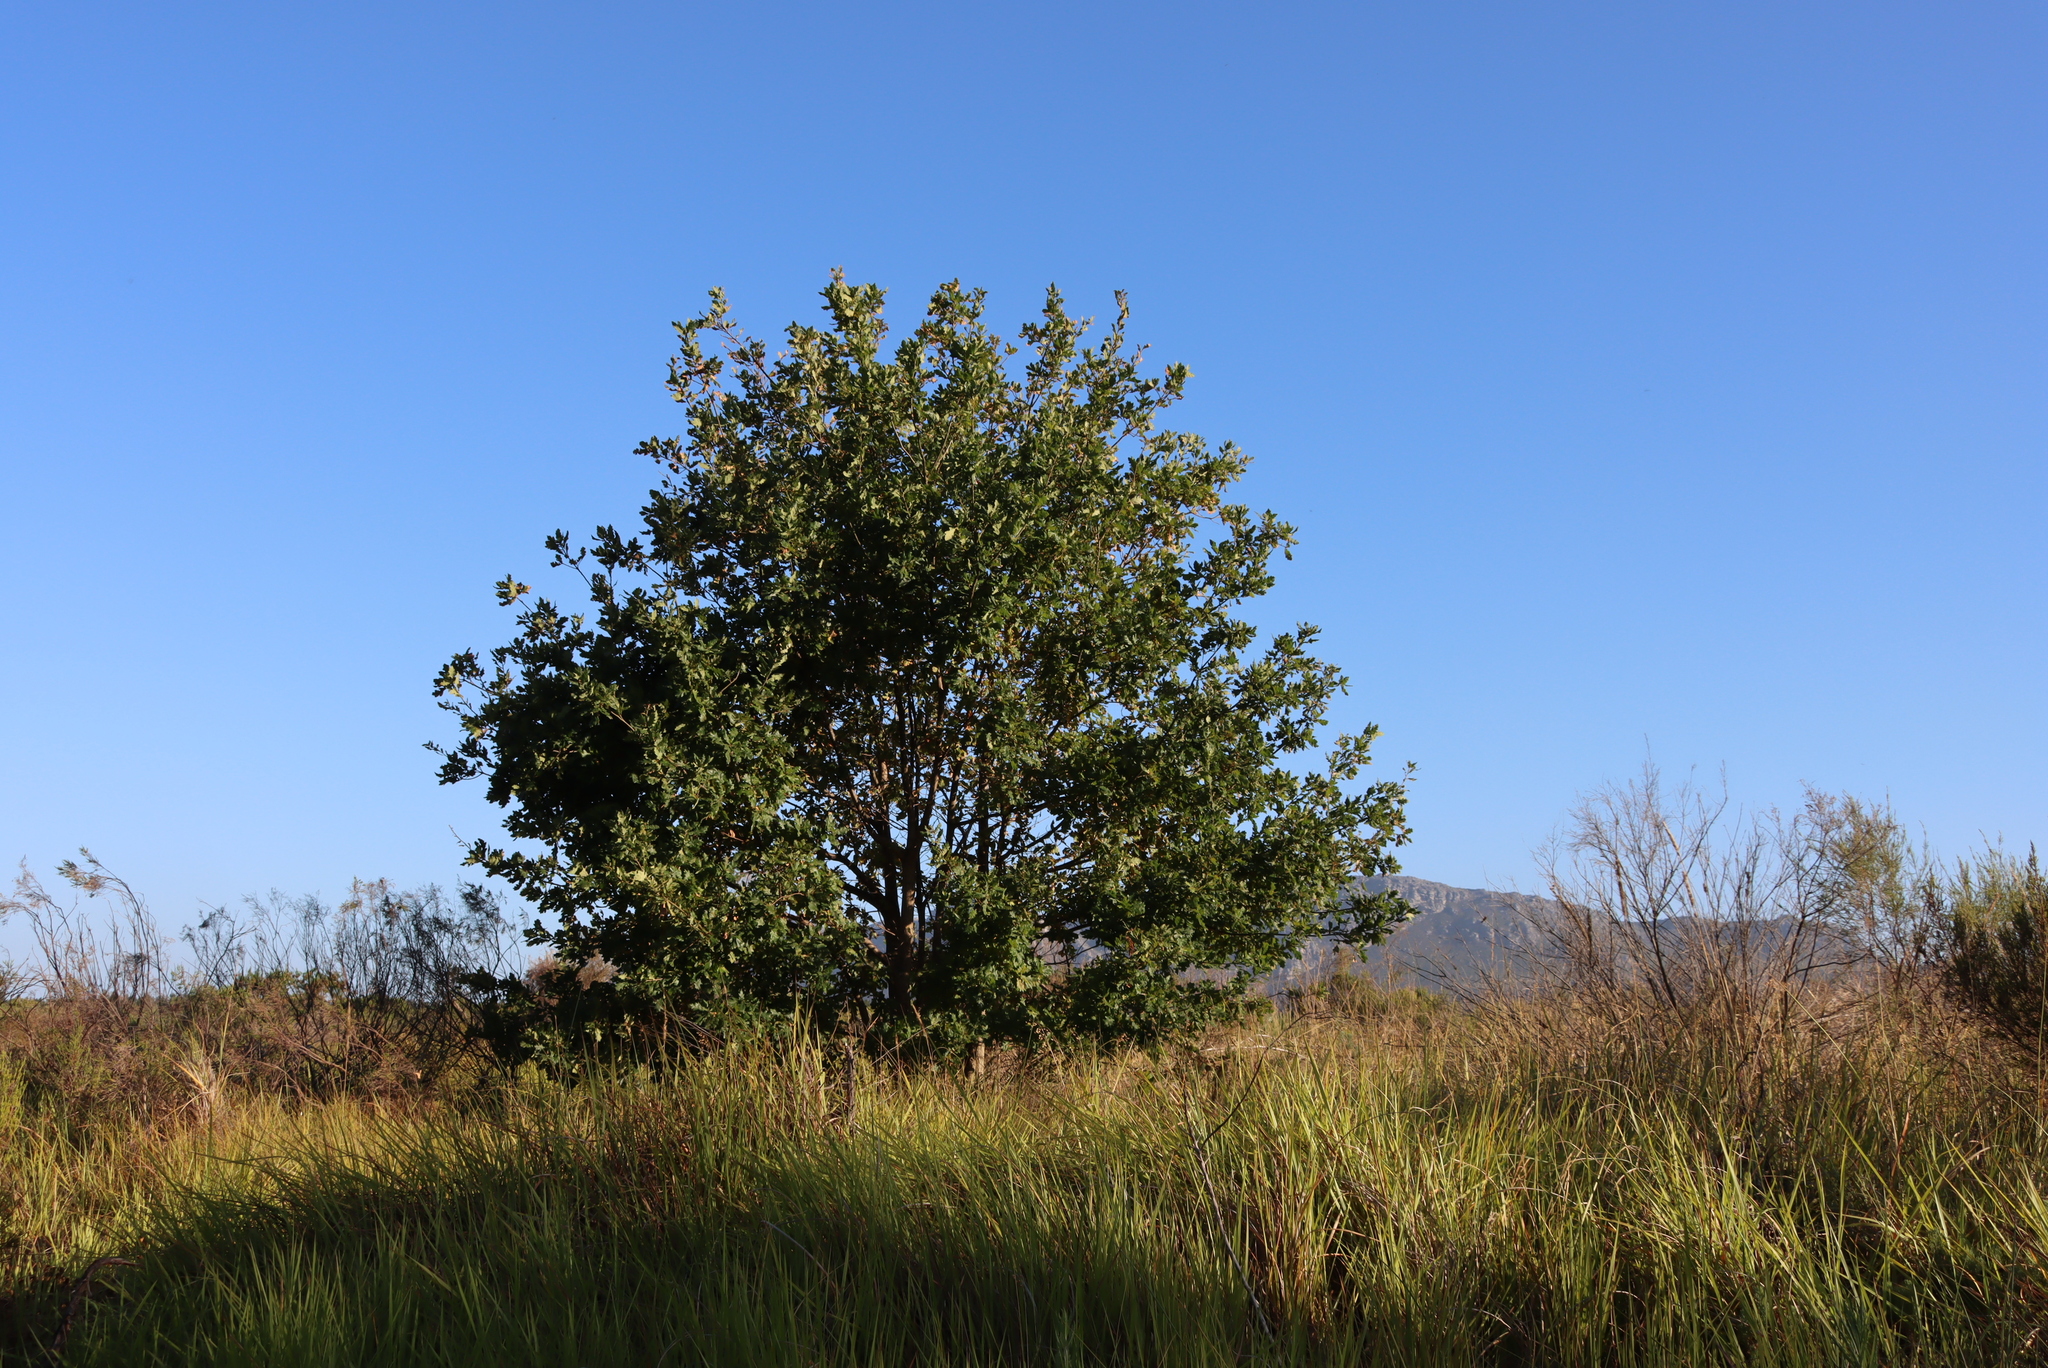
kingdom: Plantae
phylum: Tracheophyta
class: Magnoliopsida
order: Fagales
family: Fagaceae
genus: Quercus
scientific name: Quercus robur
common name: Pedunculate oak
